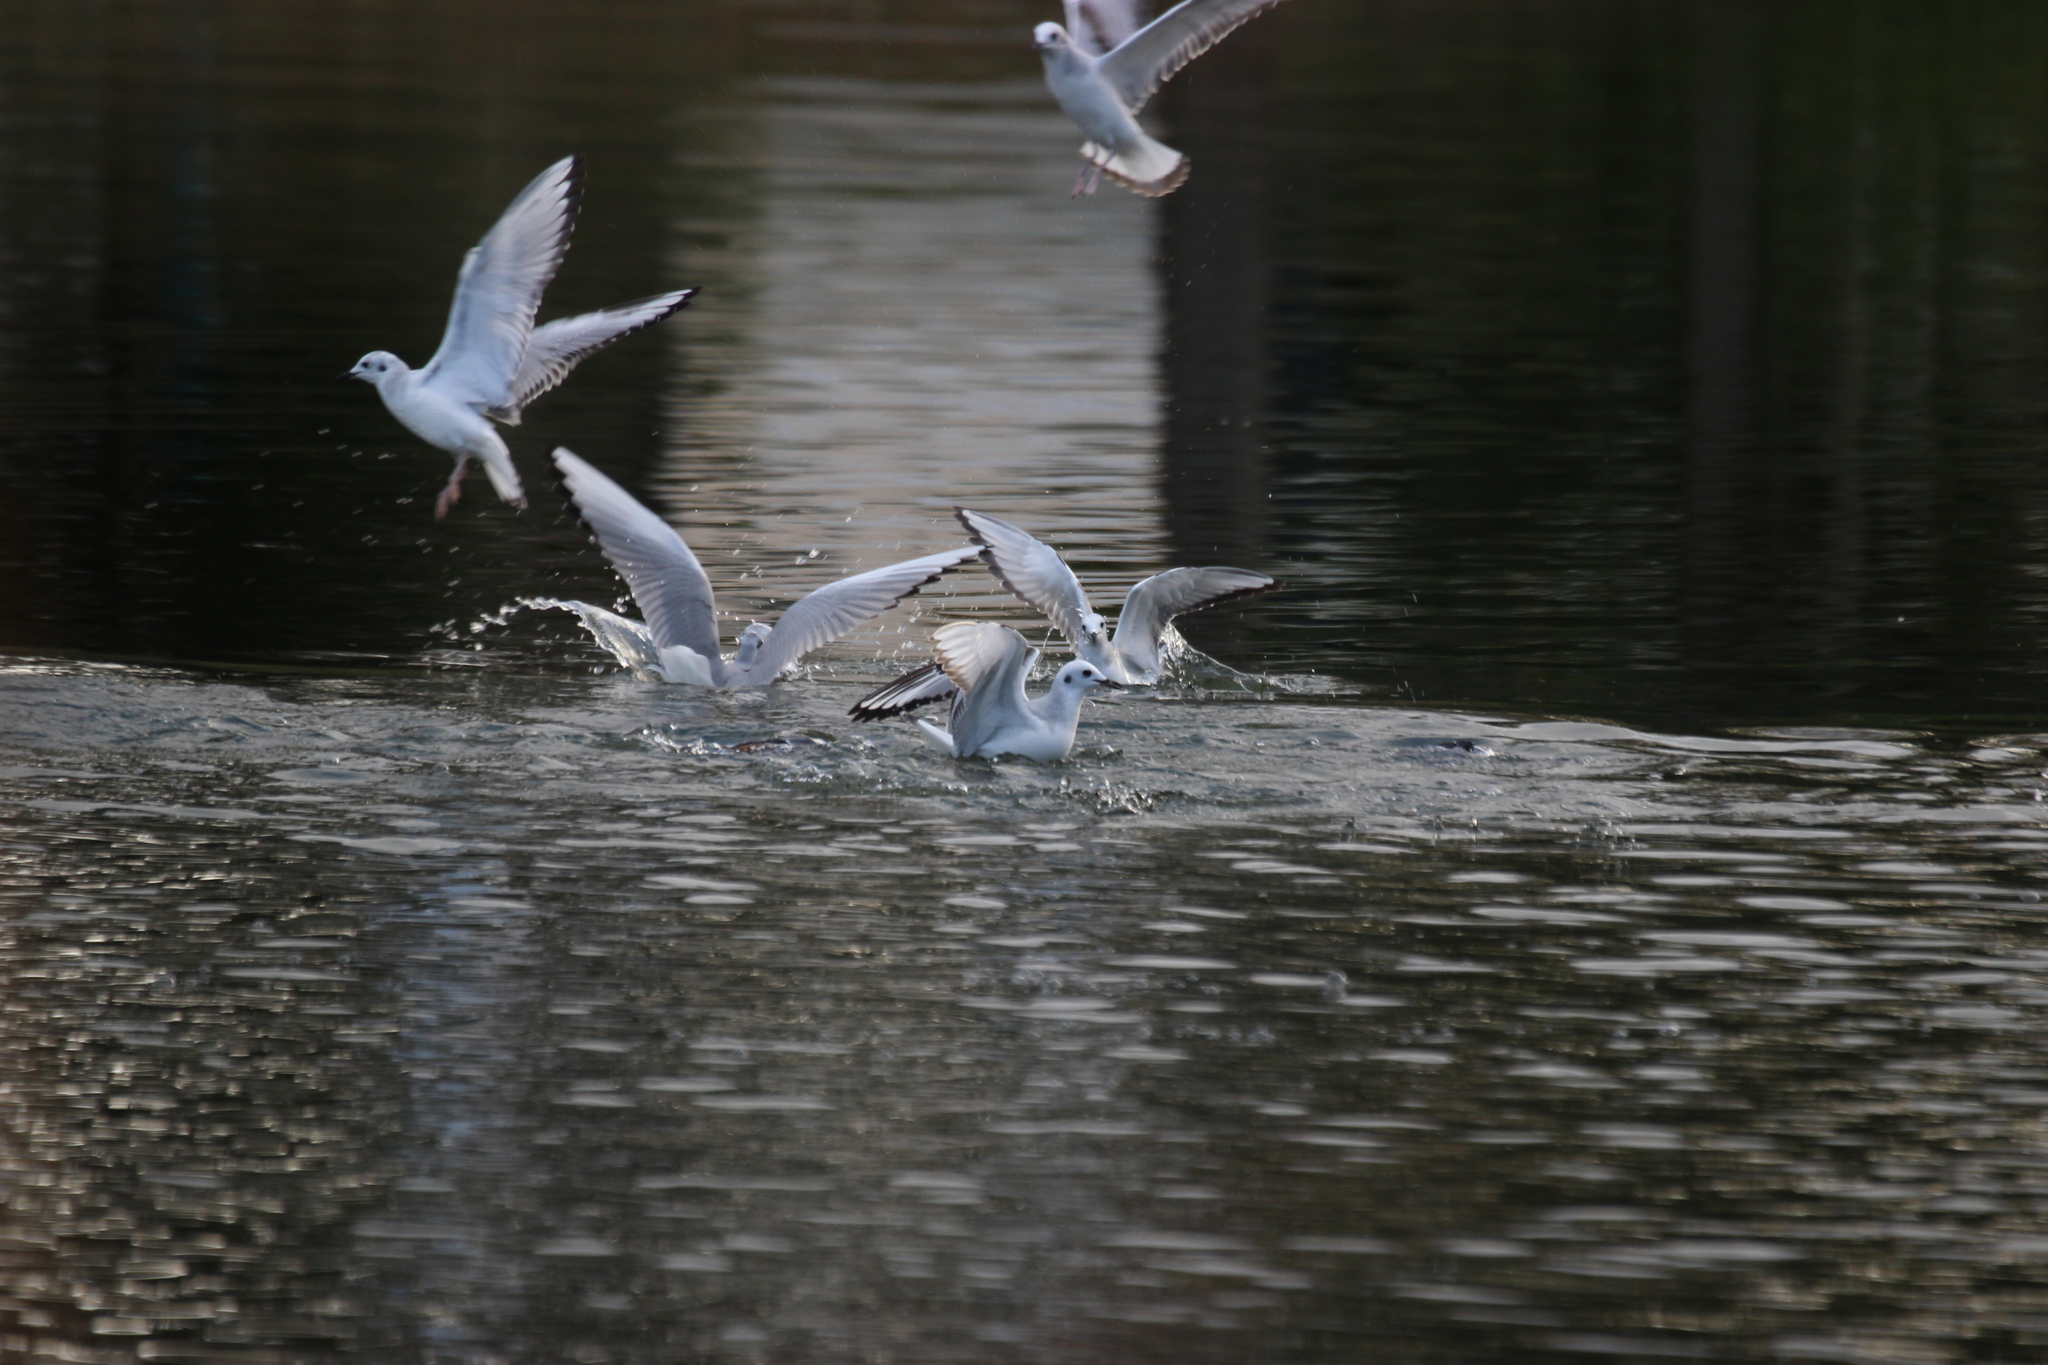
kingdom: Animalia
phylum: Chordata
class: Aves
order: Charadriiformes
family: Laridae
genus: Chroicocephalus
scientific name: Chroicocephalus philadelphia
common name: Bonaparte's gull
